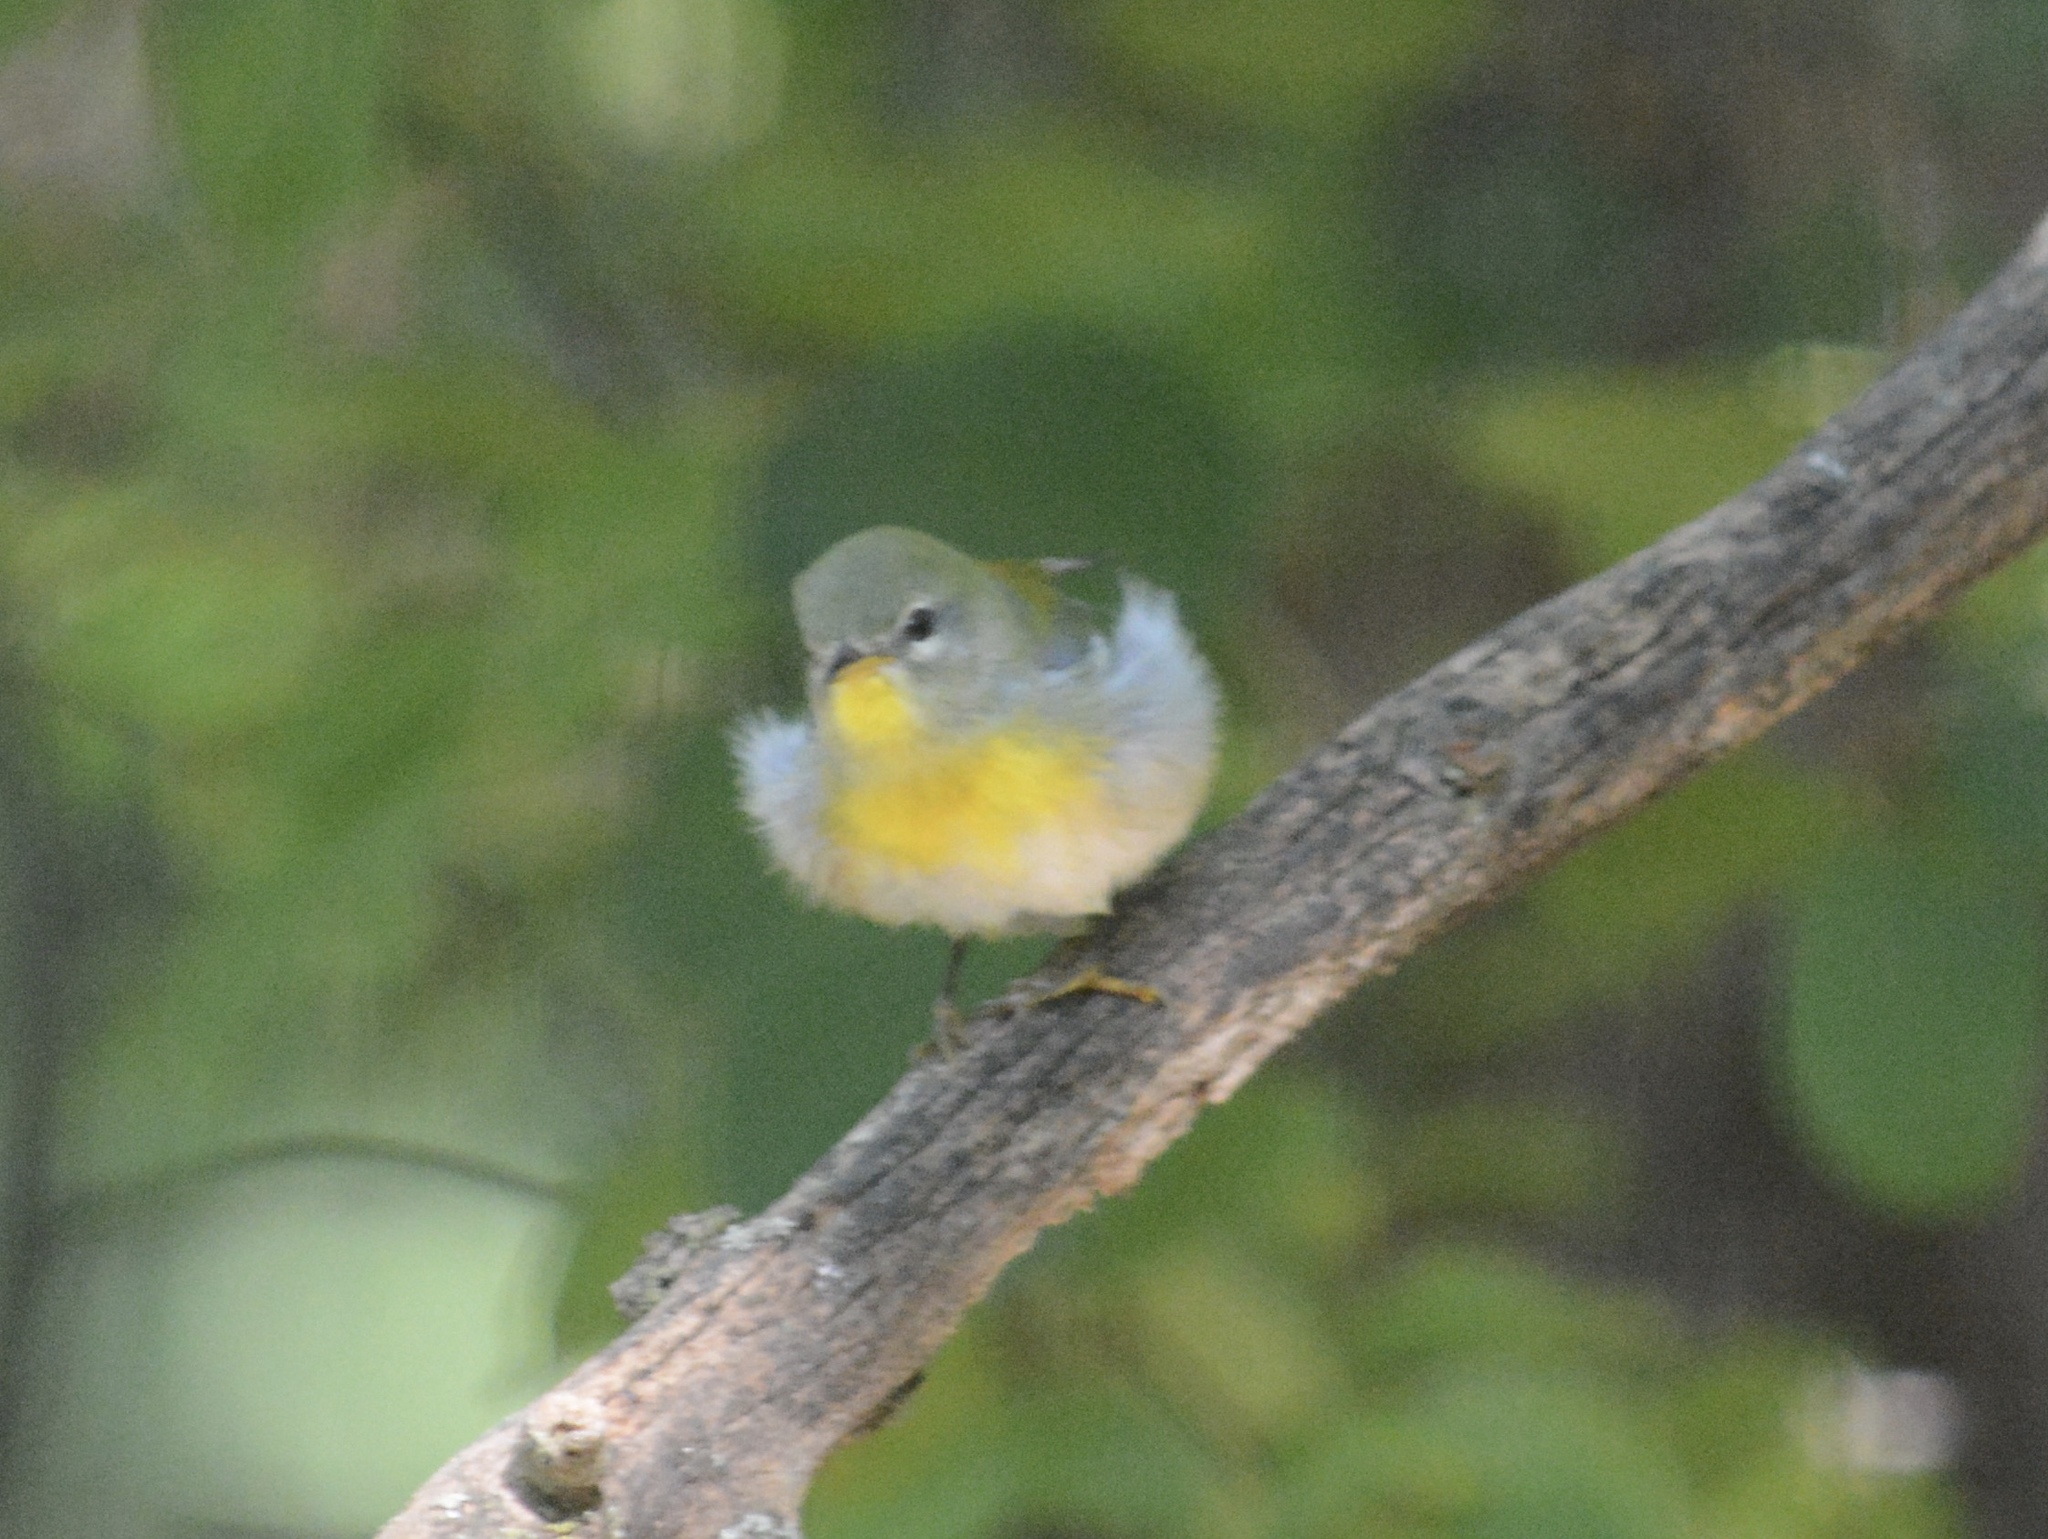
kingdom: Animalia
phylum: Chordata
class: Aves
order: Passeriformes
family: Parulidae
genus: Setophaga
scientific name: Setophaga americana
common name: Northern parula
